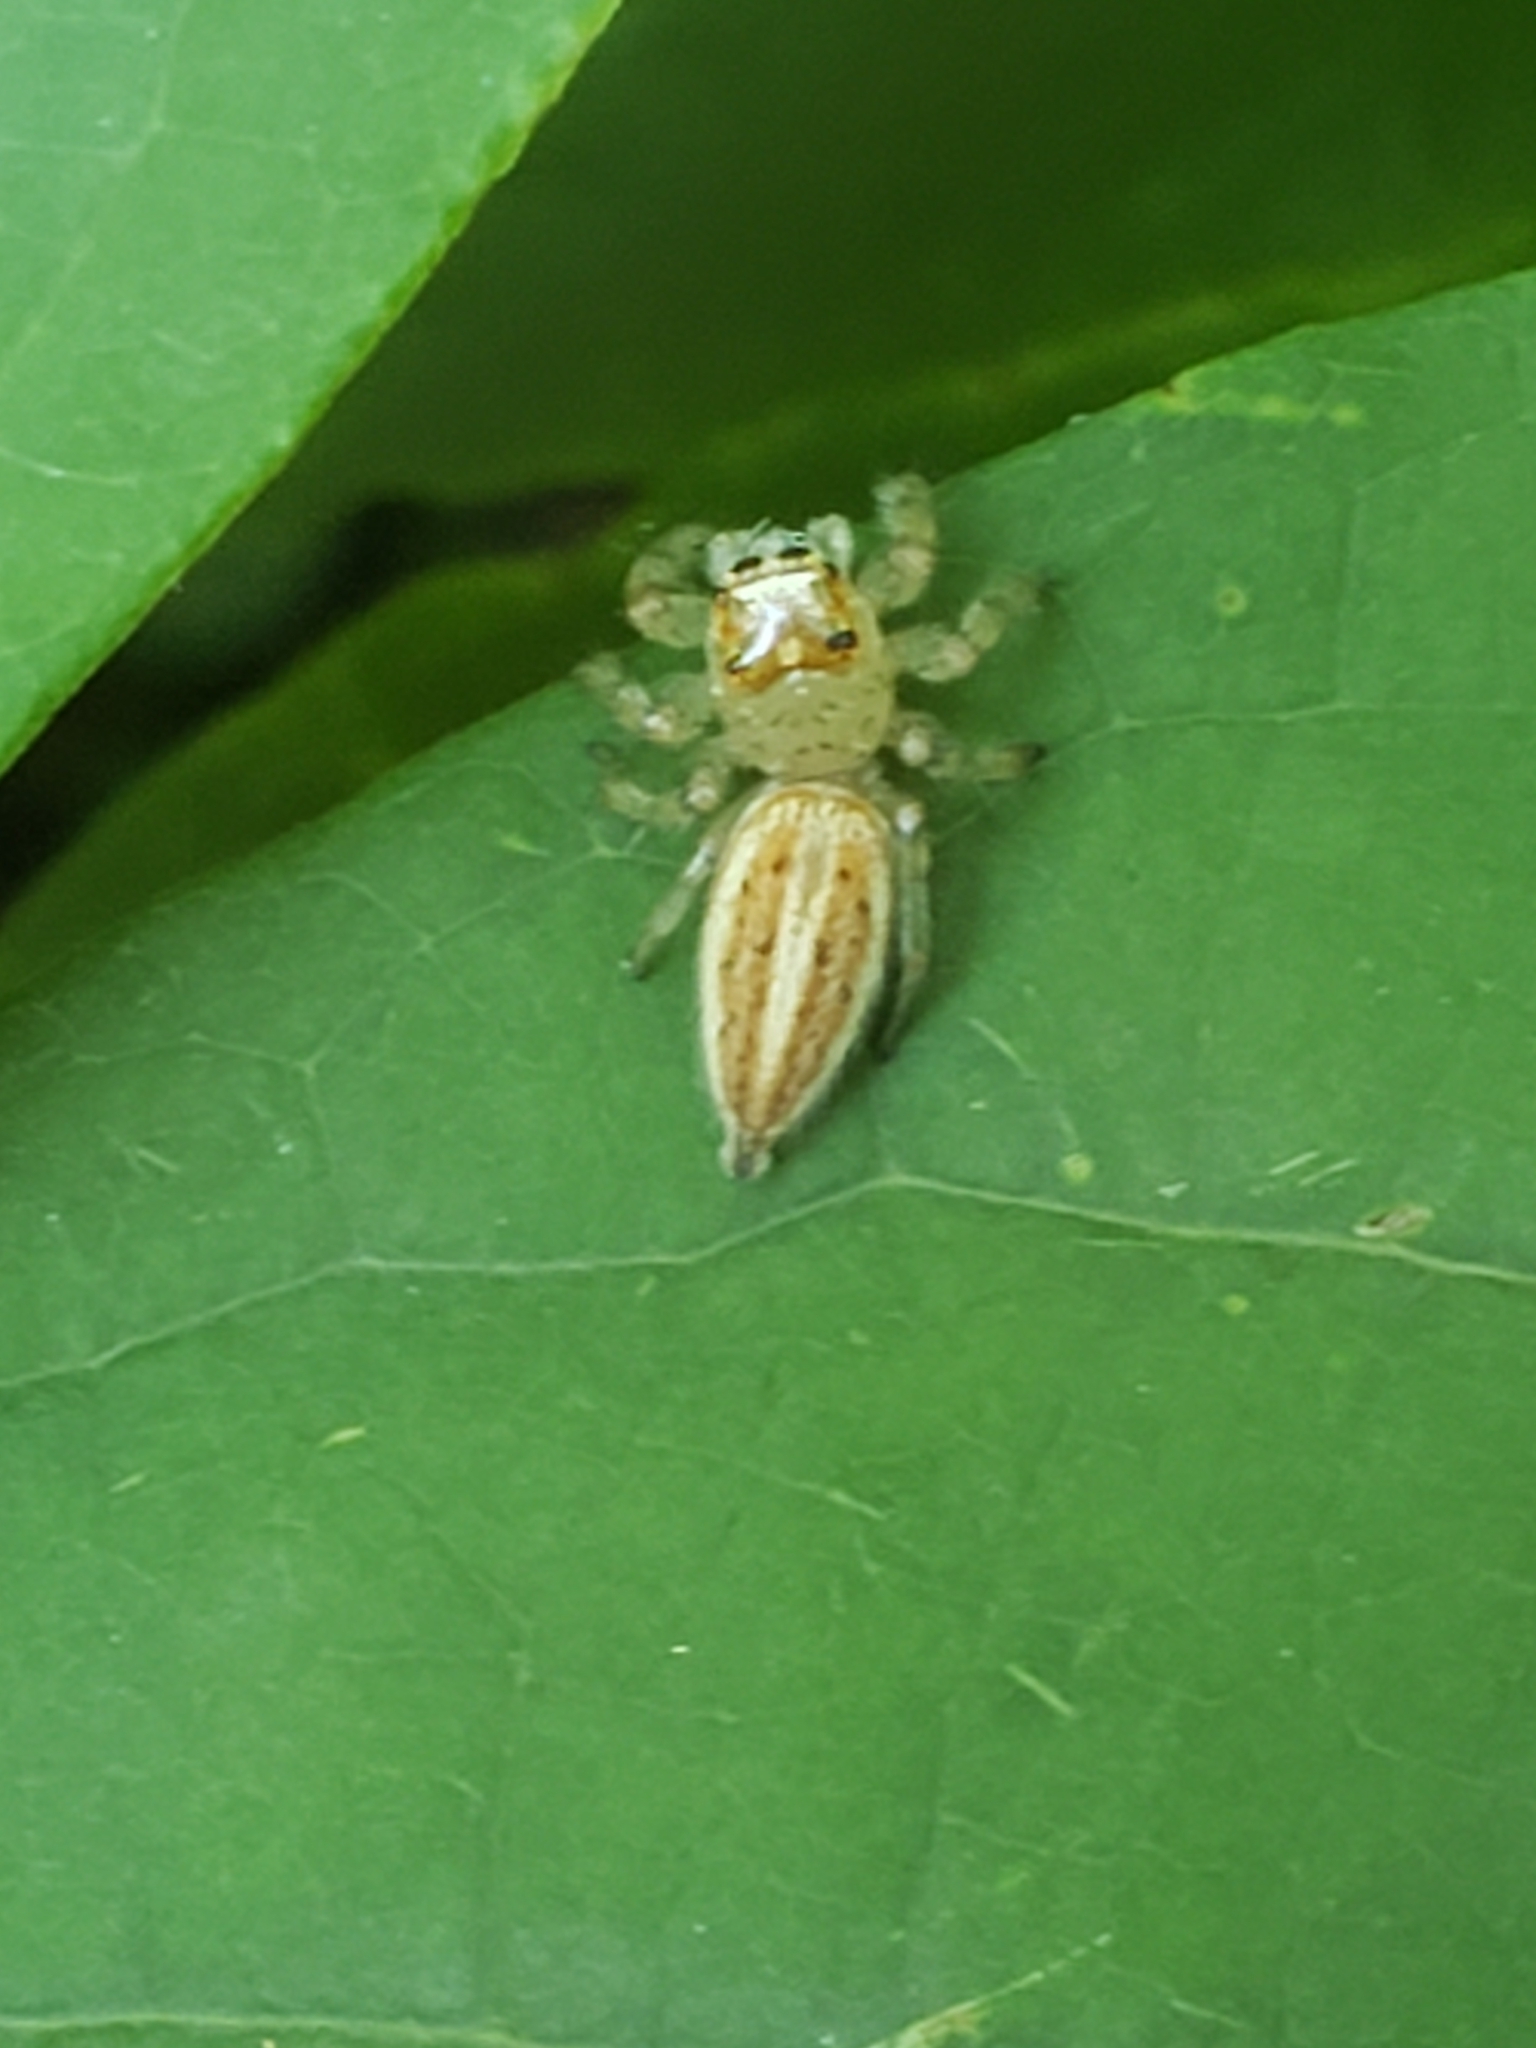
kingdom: Animalia
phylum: Arthropoda
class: Arachnida
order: Araneae
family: Salticidae
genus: Colonus
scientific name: Colonus sylvanus
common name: Jumping spiders
